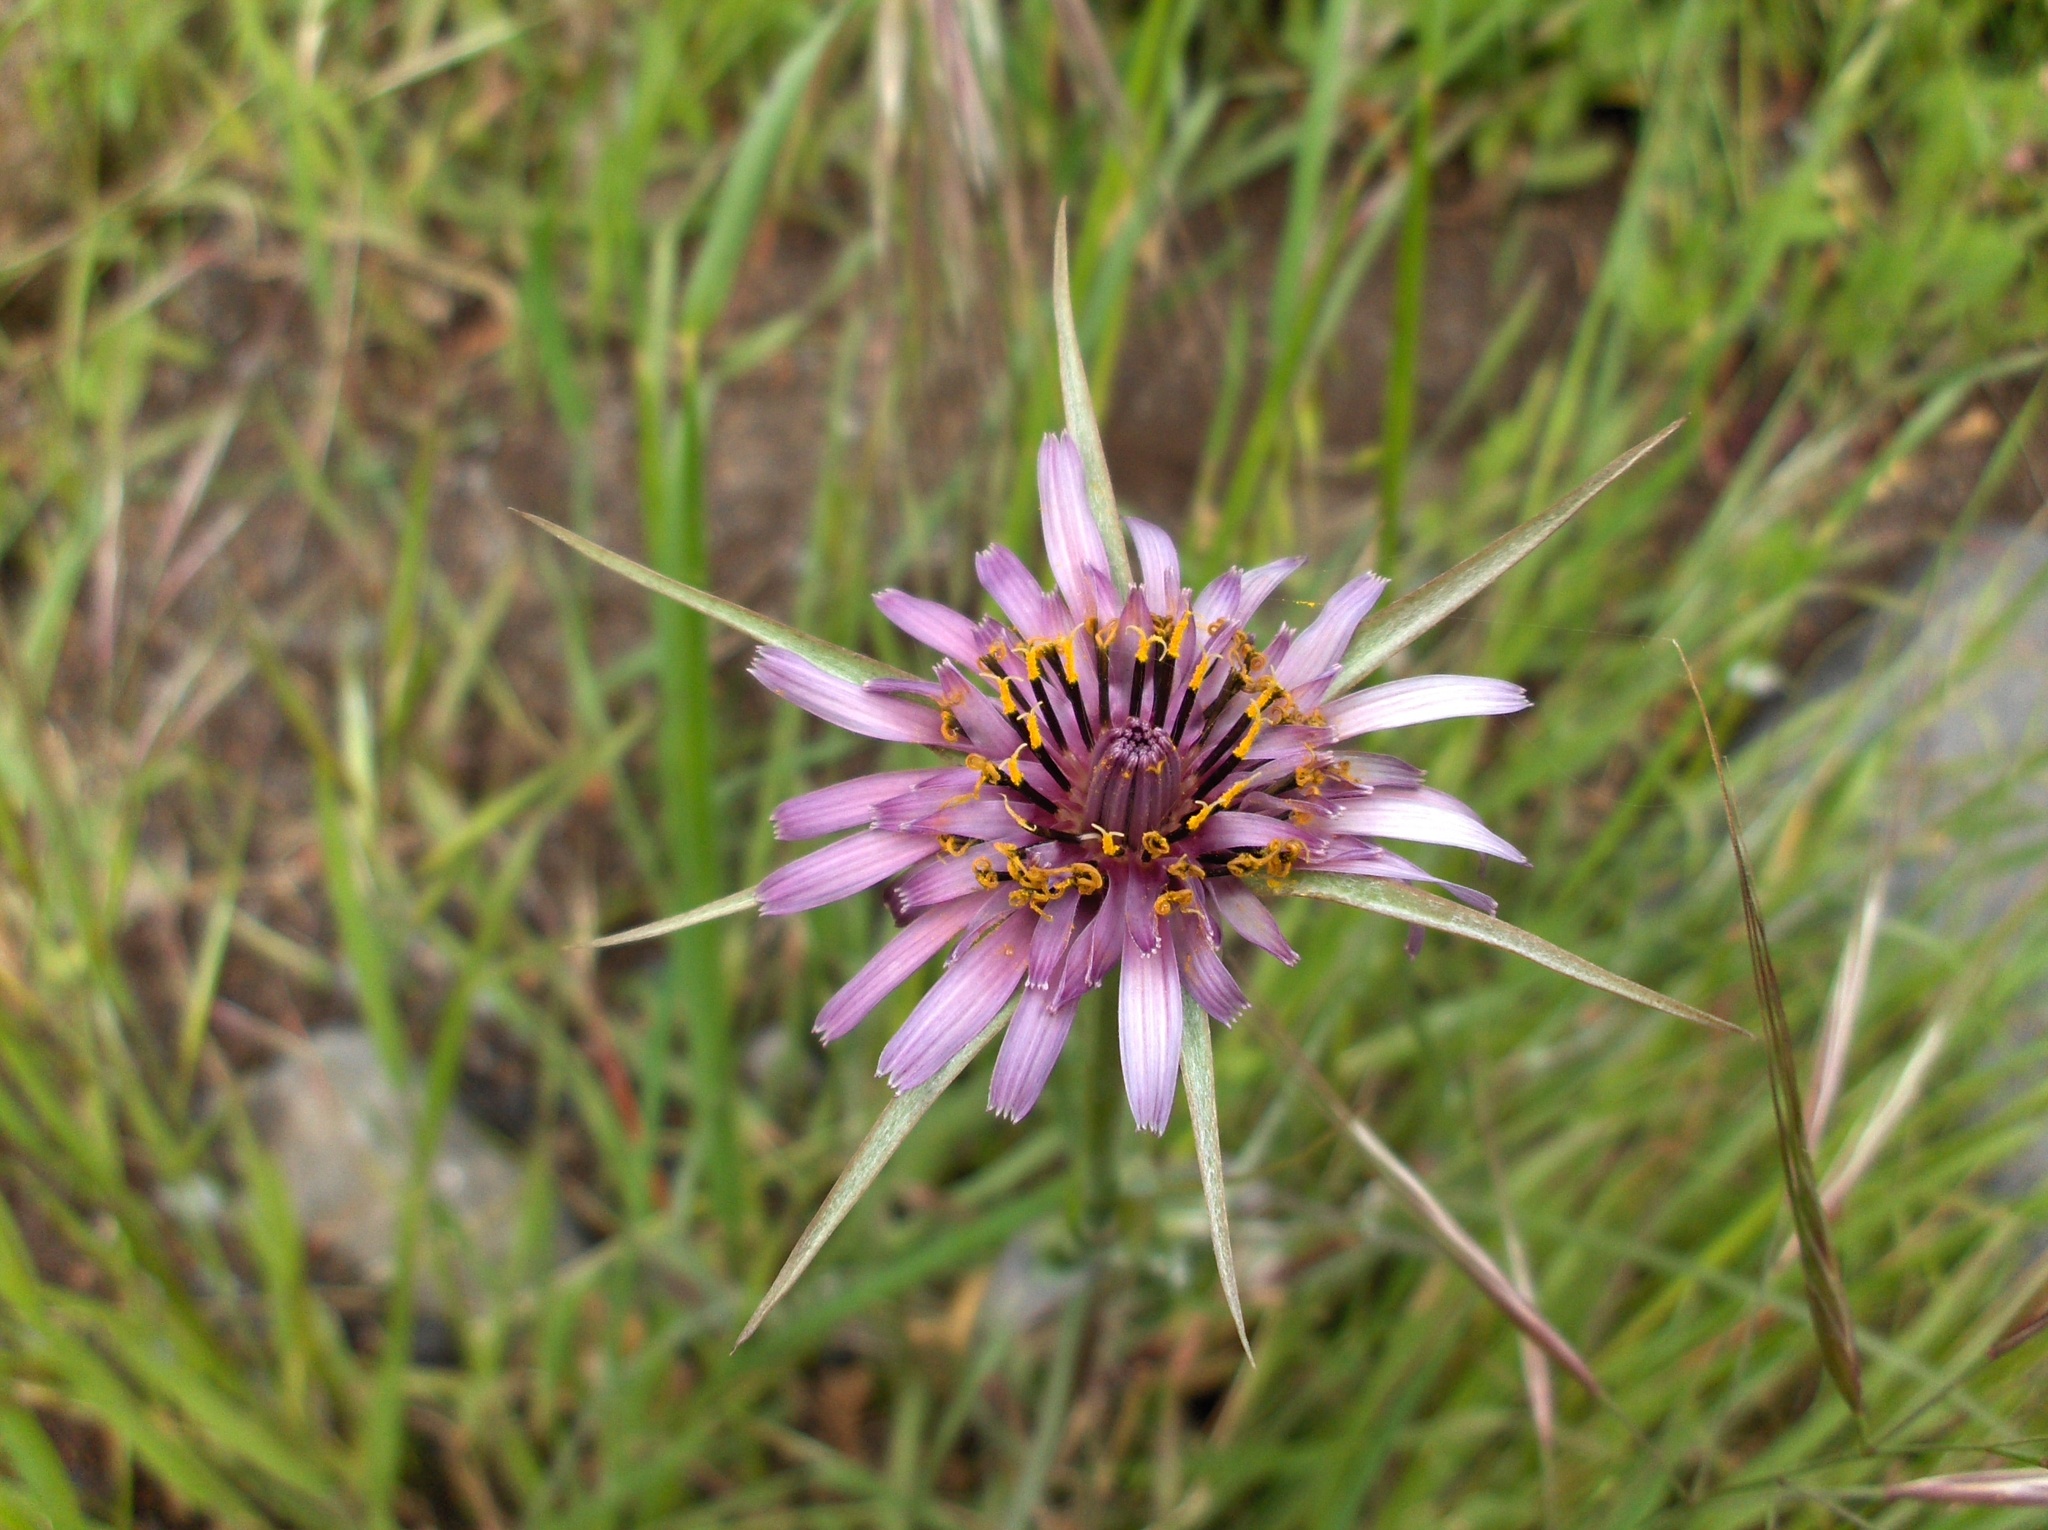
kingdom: Plantae
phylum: Tracheophyta
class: Magnoliopsida
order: Asterales
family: Asteraceae
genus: Tragopogon
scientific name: Tragopogon porrifolius
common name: Salsify
